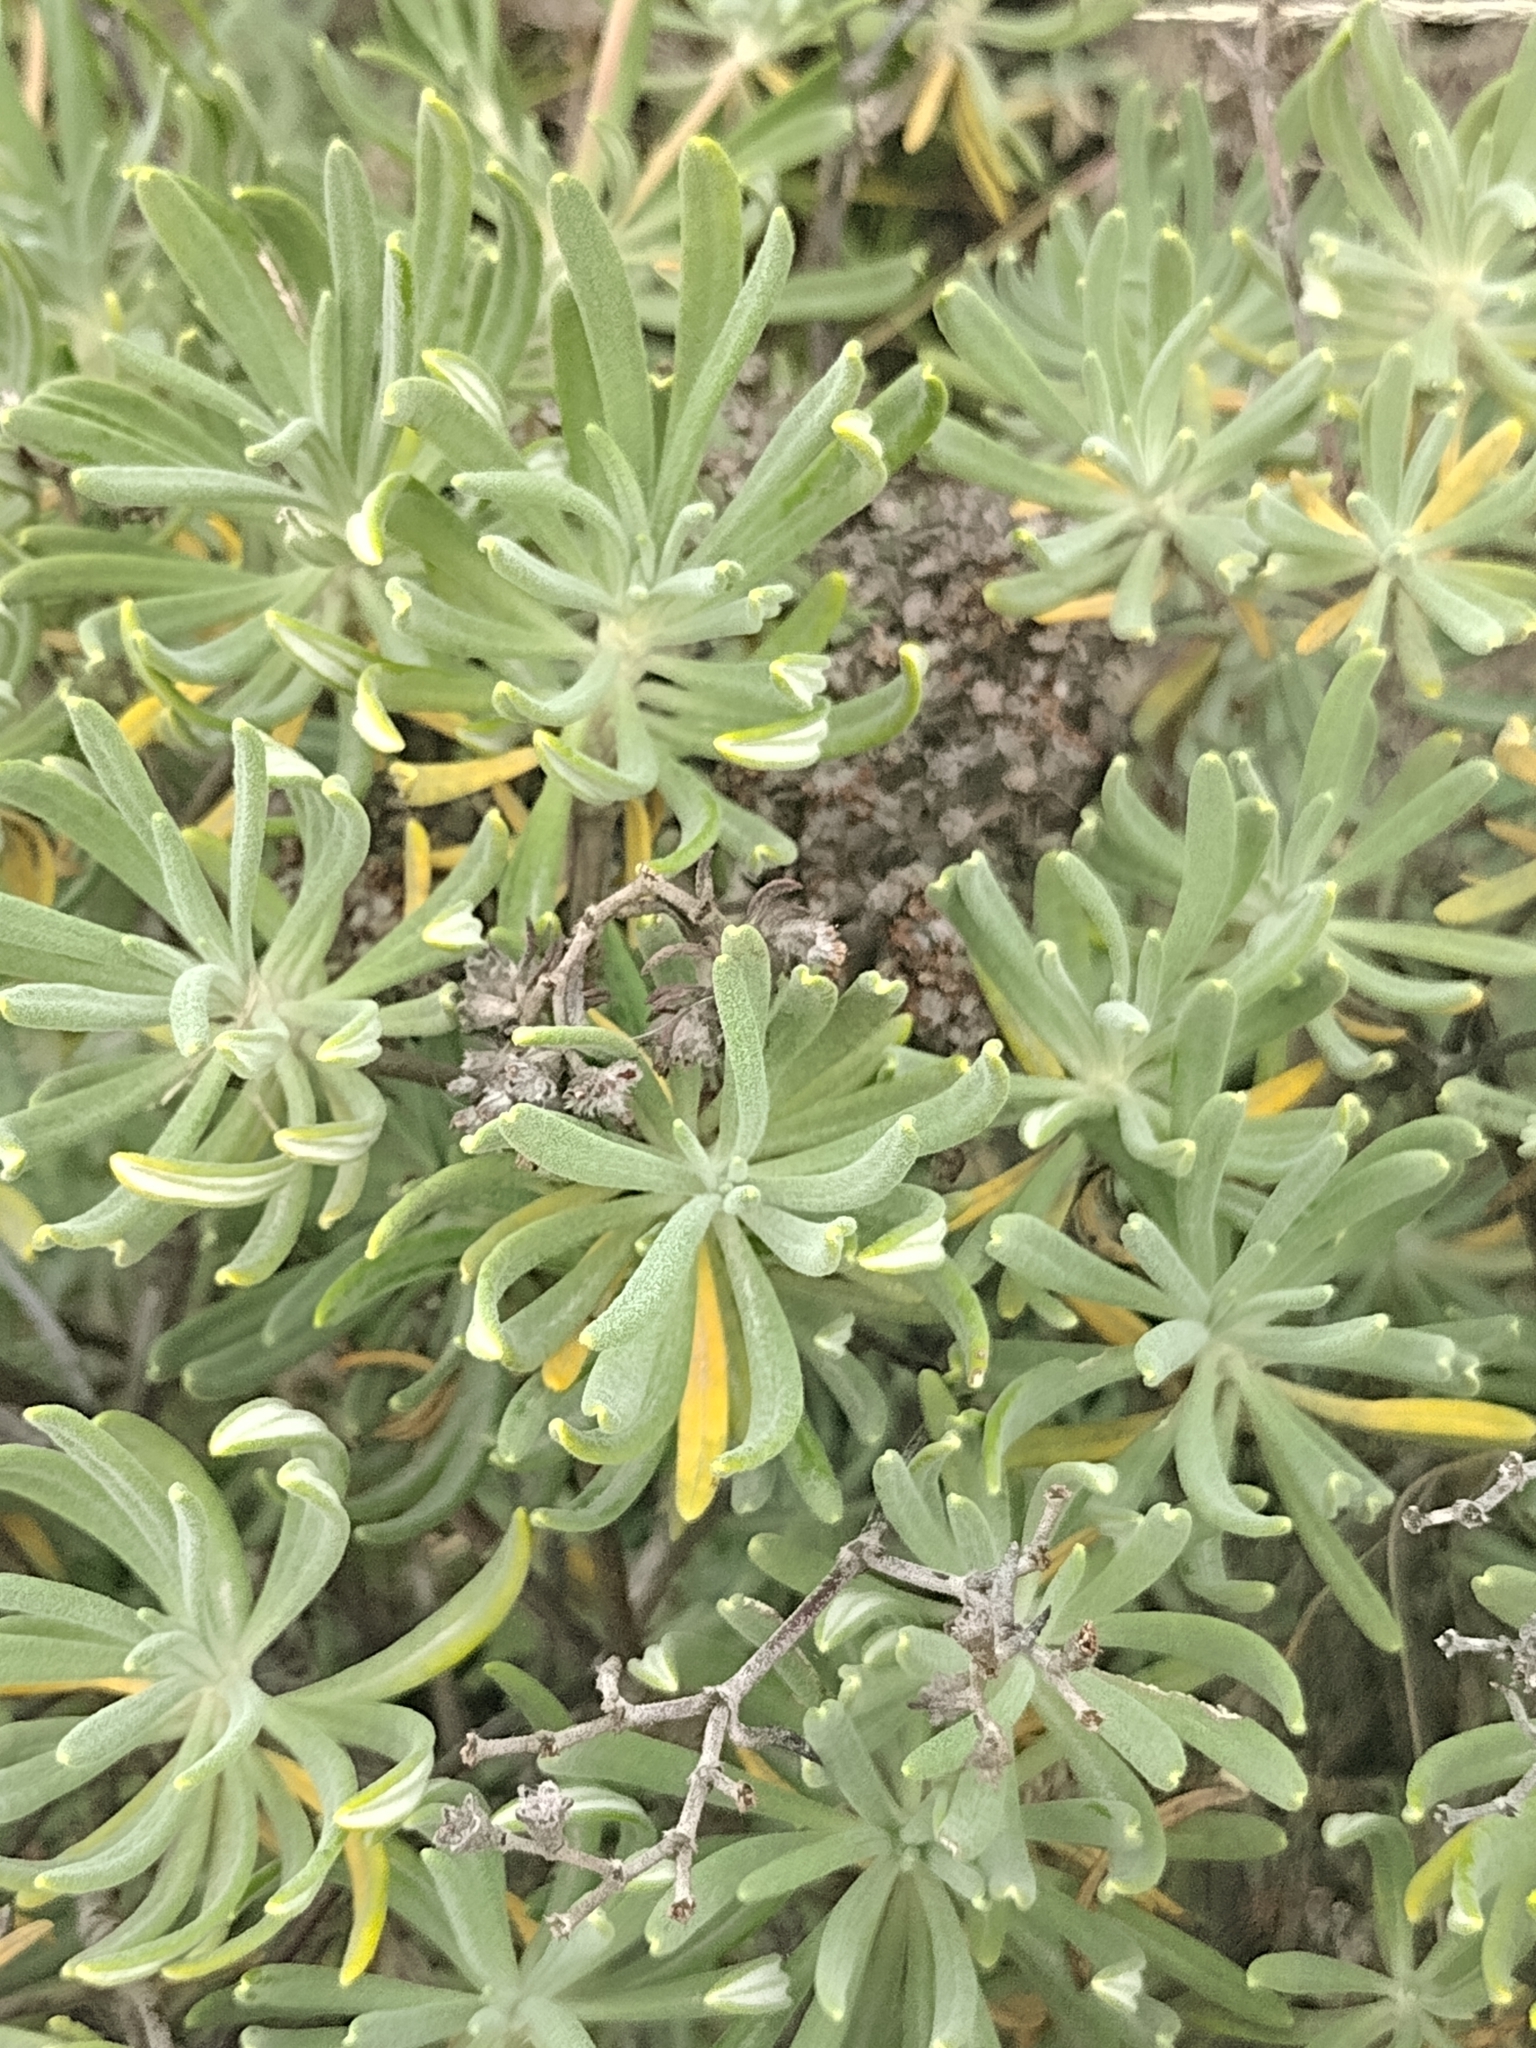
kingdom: Plantae
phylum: Tracheophyta
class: Magnoliopsida
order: Caryophyllales
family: Polygonaceae
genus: Eriogonum
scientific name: Eriogonum arborescens
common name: Island buckwheat
